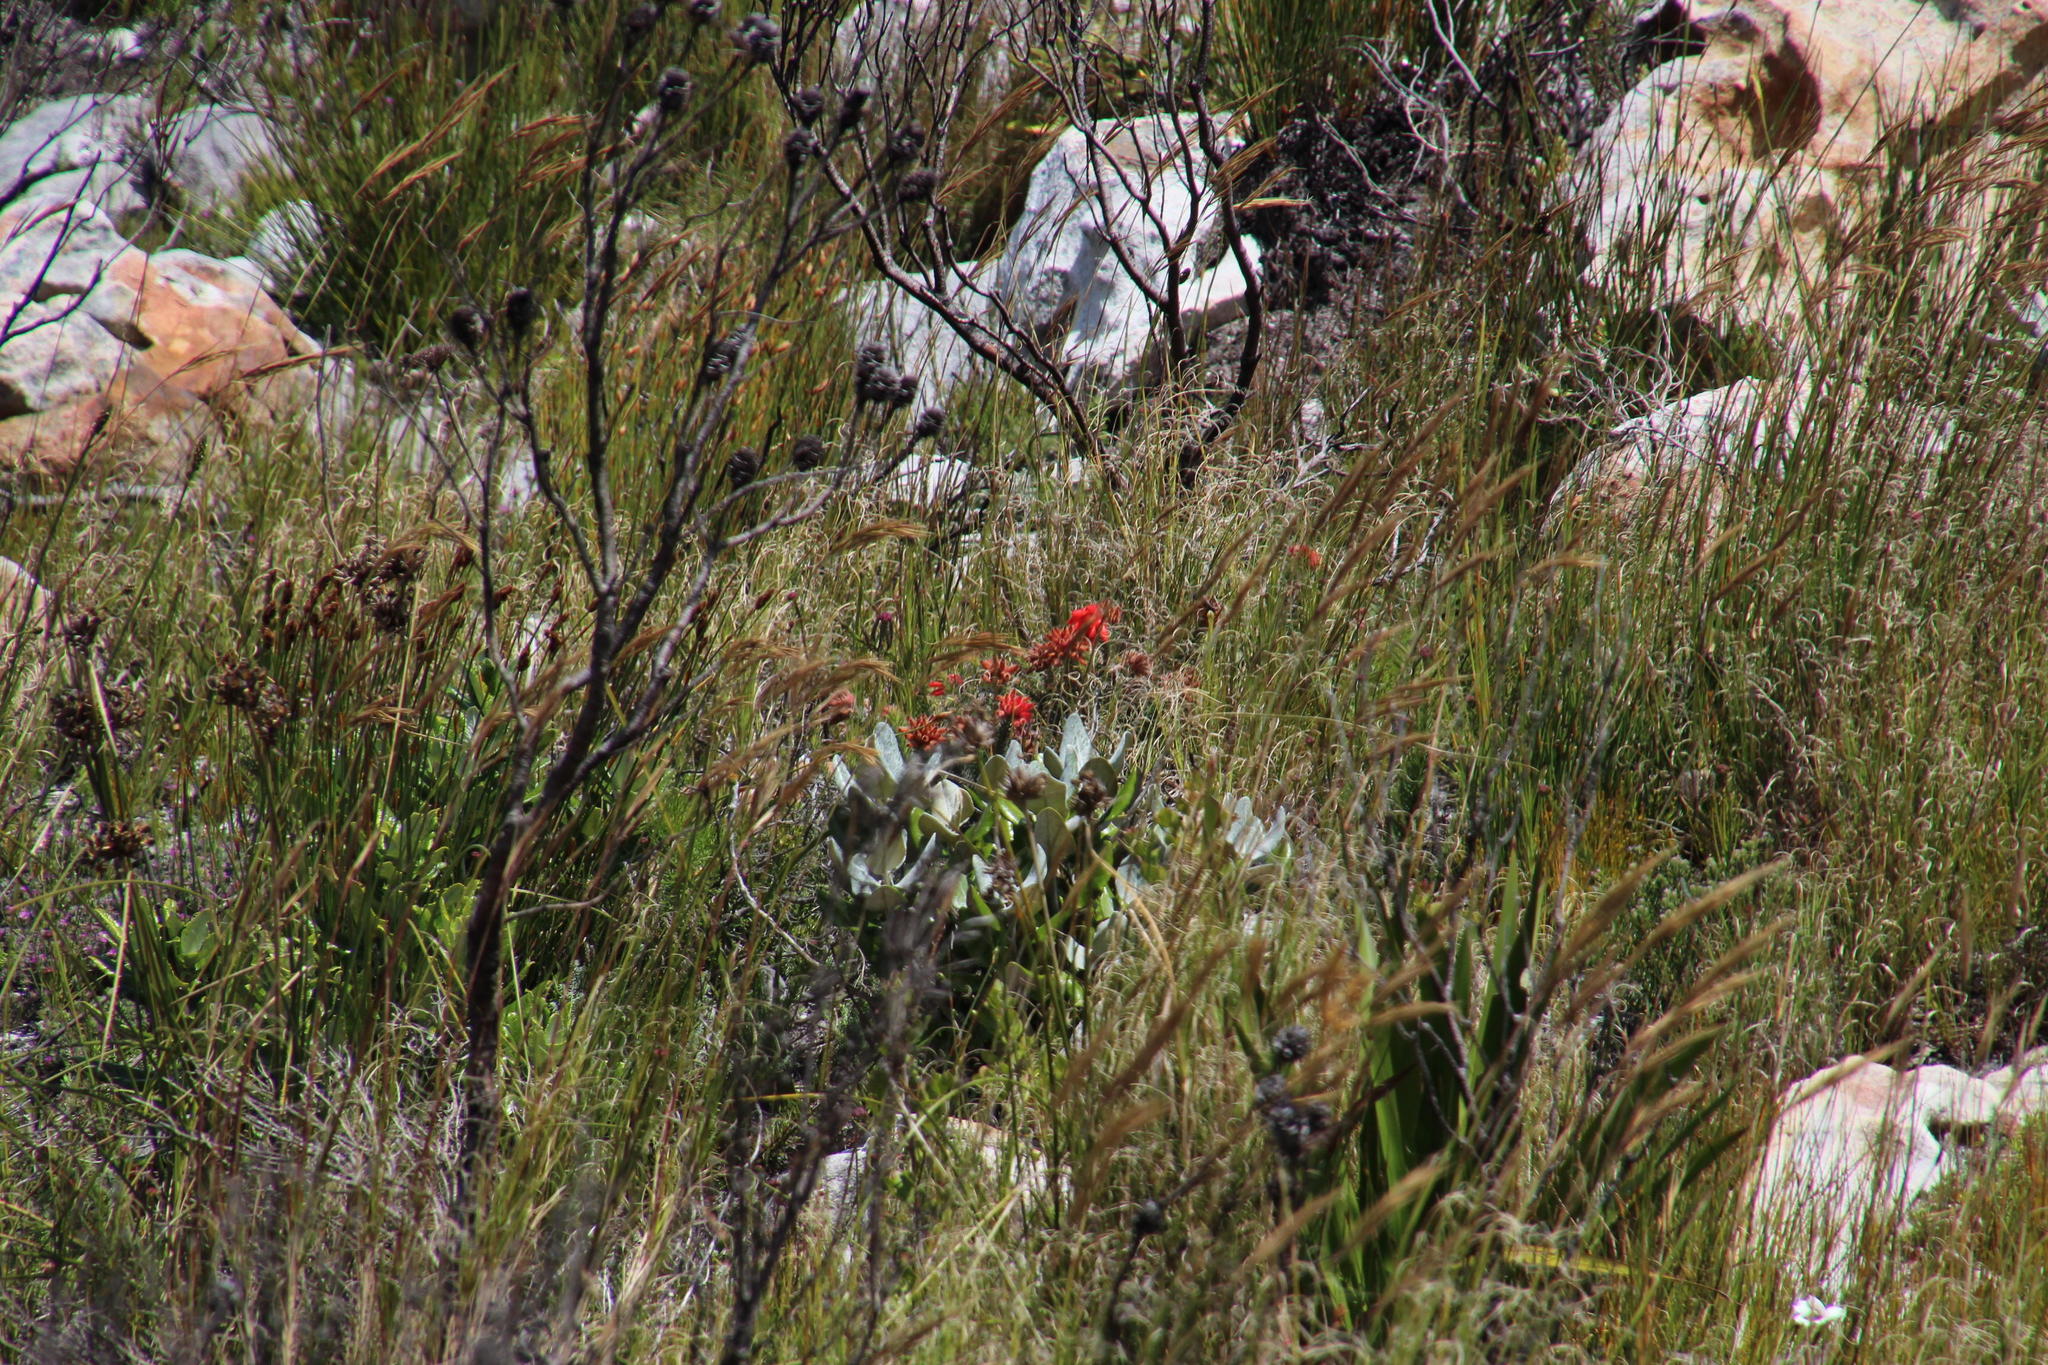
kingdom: Plantae
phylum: Tracheophyta
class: Magnoliopsida
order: Ericales
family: Ericaceae
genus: Erica
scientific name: Erica cerinthoides
